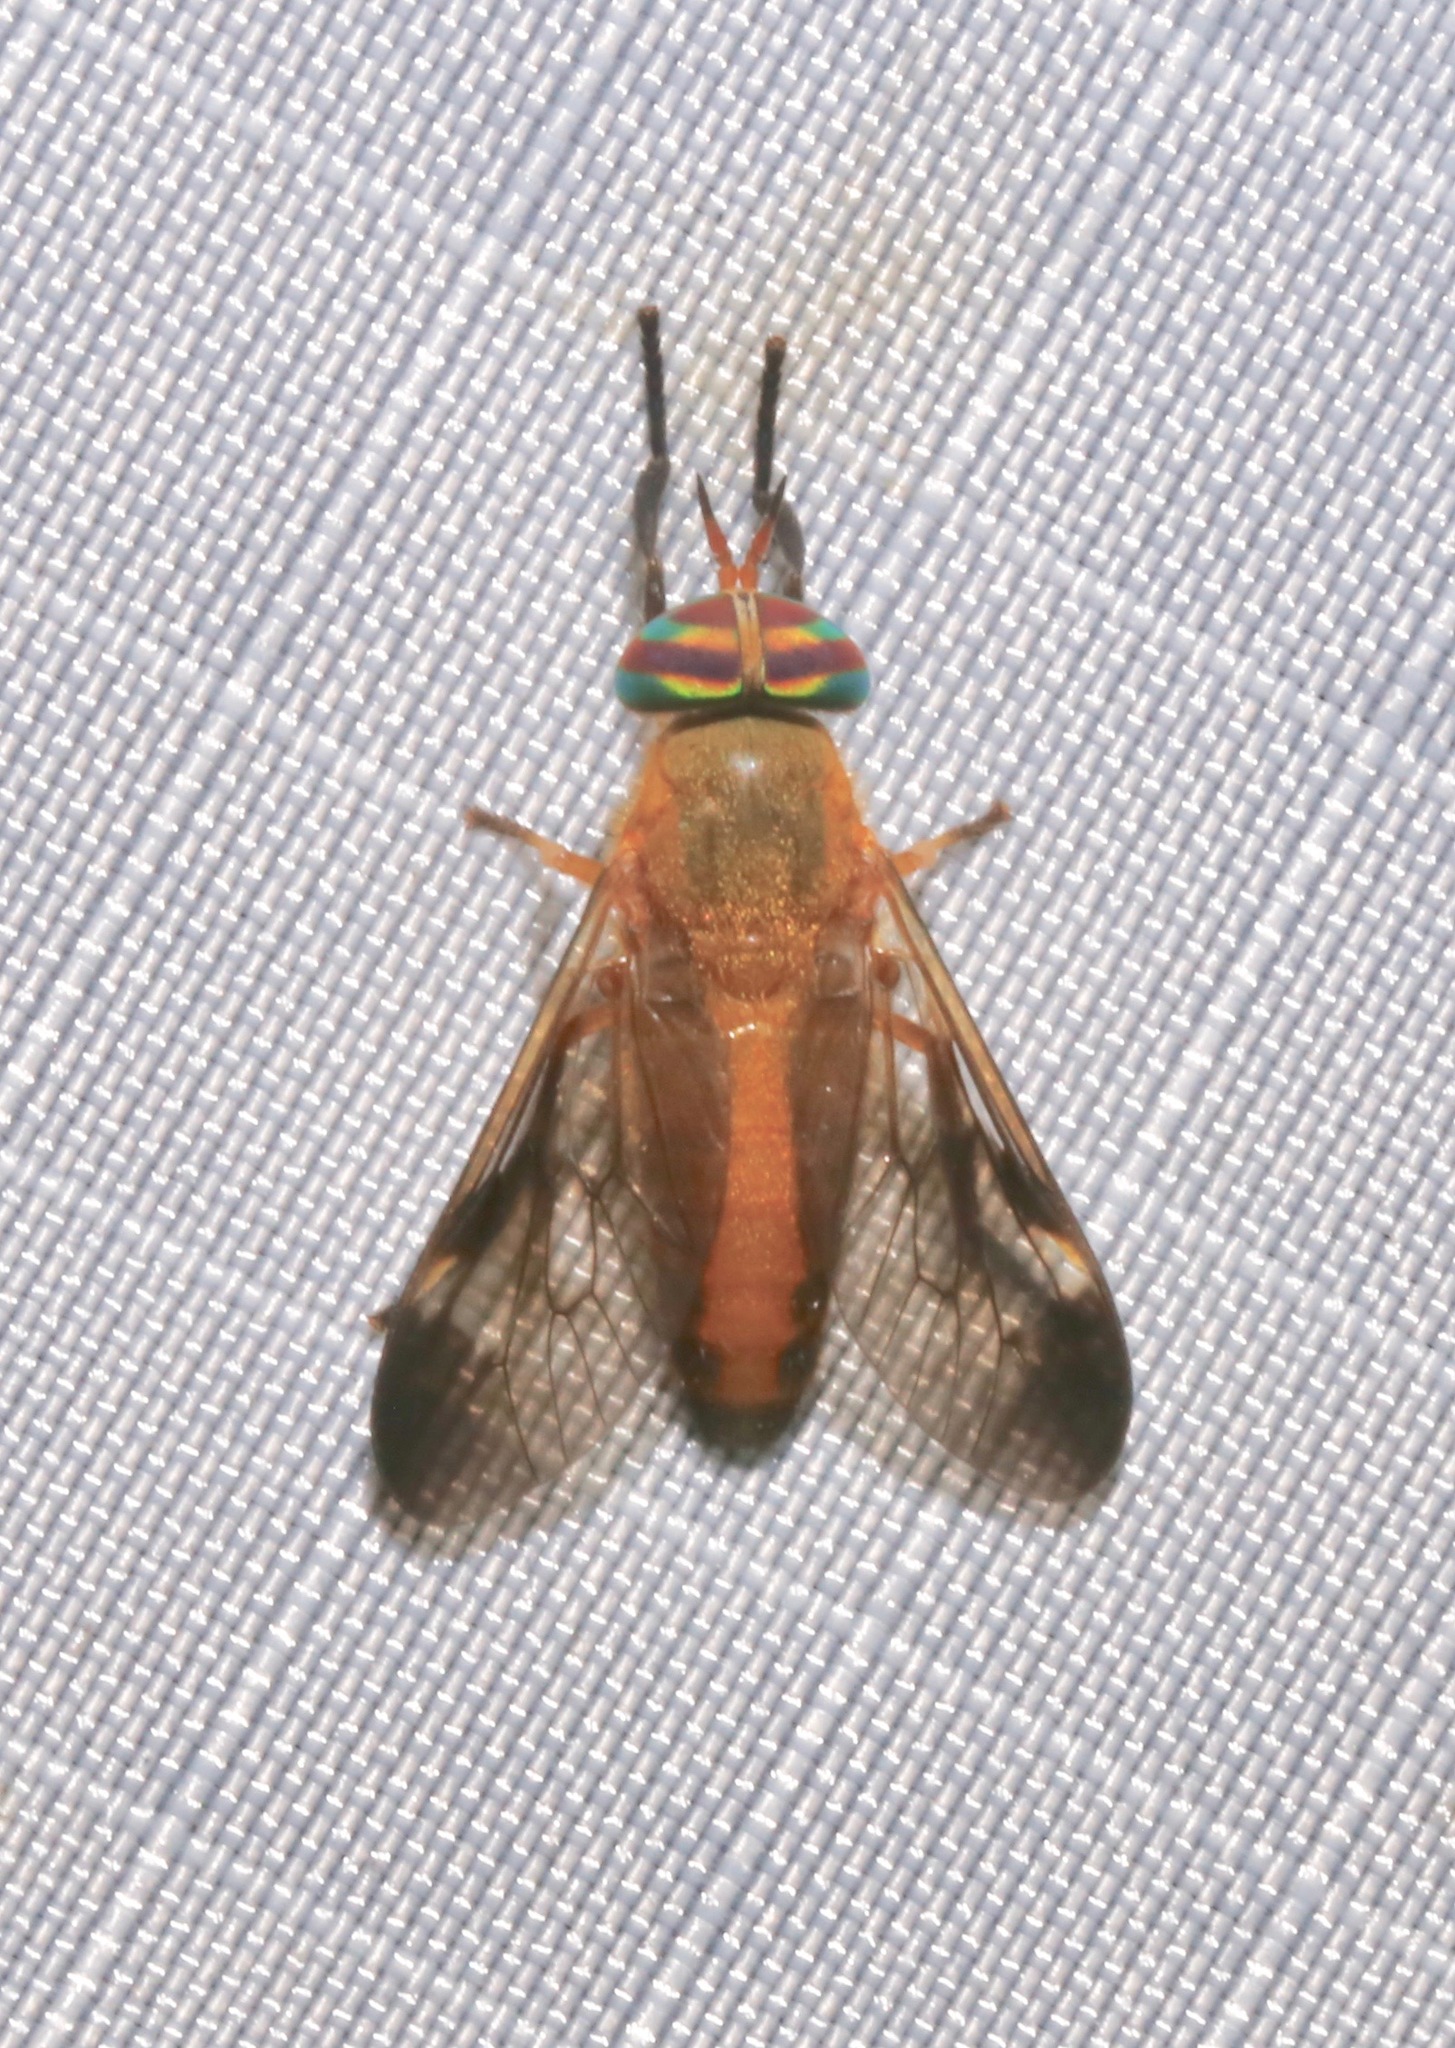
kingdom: Animalia
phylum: Arthropoda
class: Insecta
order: Diptera
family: Tabanidae
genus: Diachlorus
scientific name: Diachlorus ferrugatus
